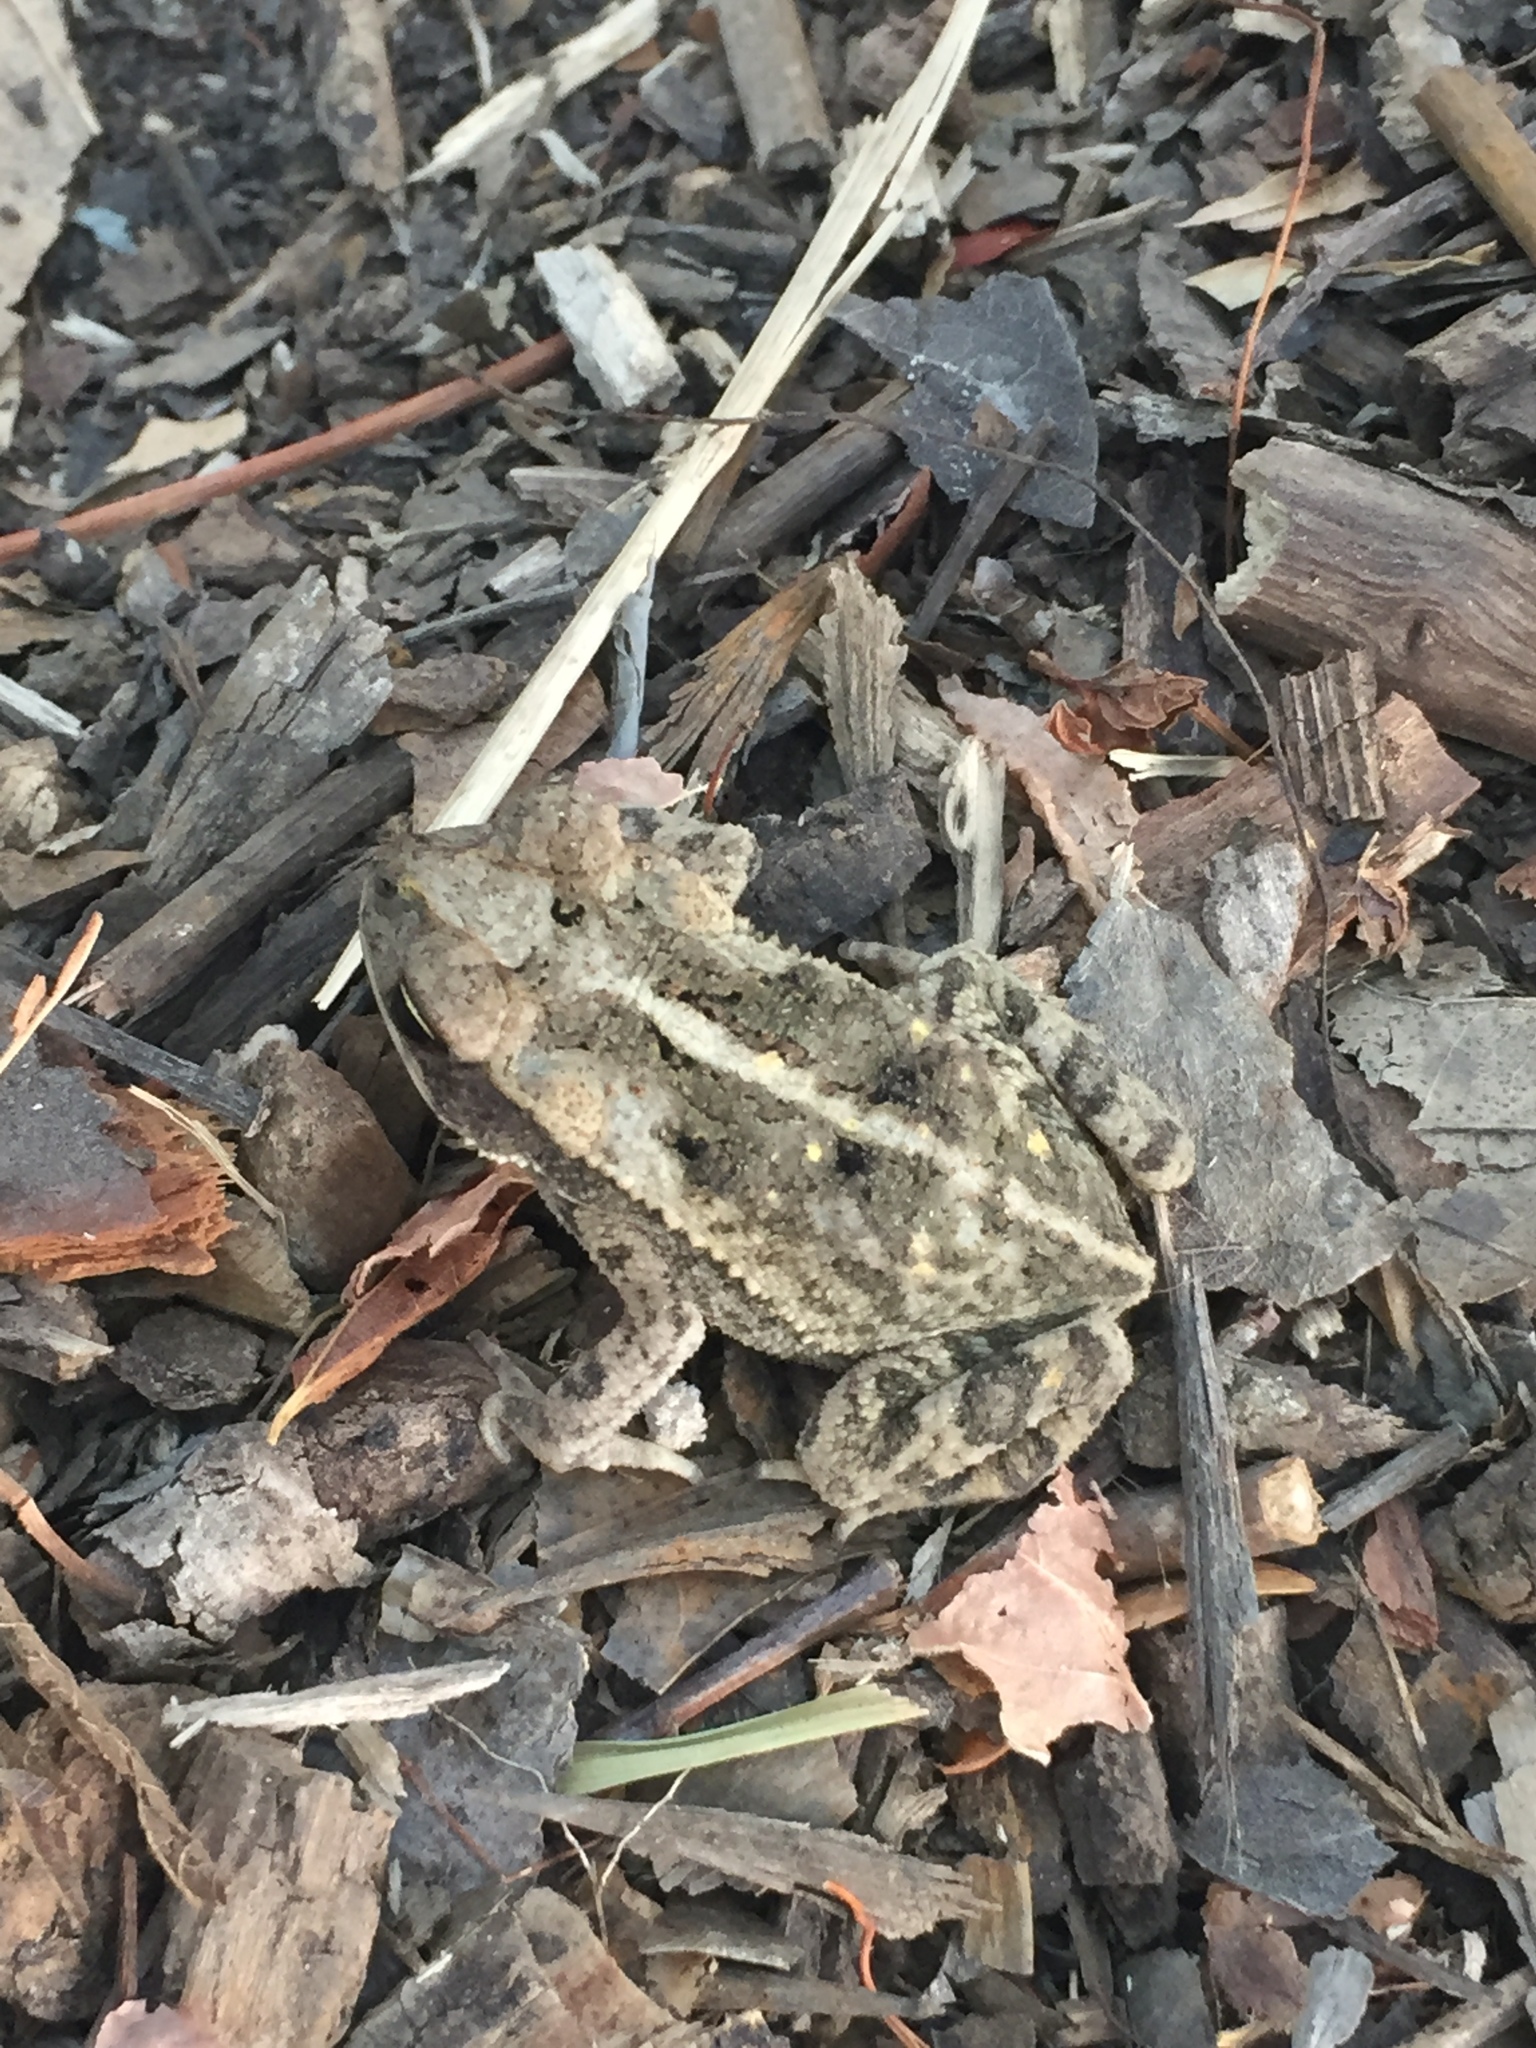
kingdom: Animalia
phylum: Chordata
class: Amphibia
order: Anura
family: Bufonidae
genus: Incilius
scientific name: Incilius nebulifer
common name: Gulf coast toad
